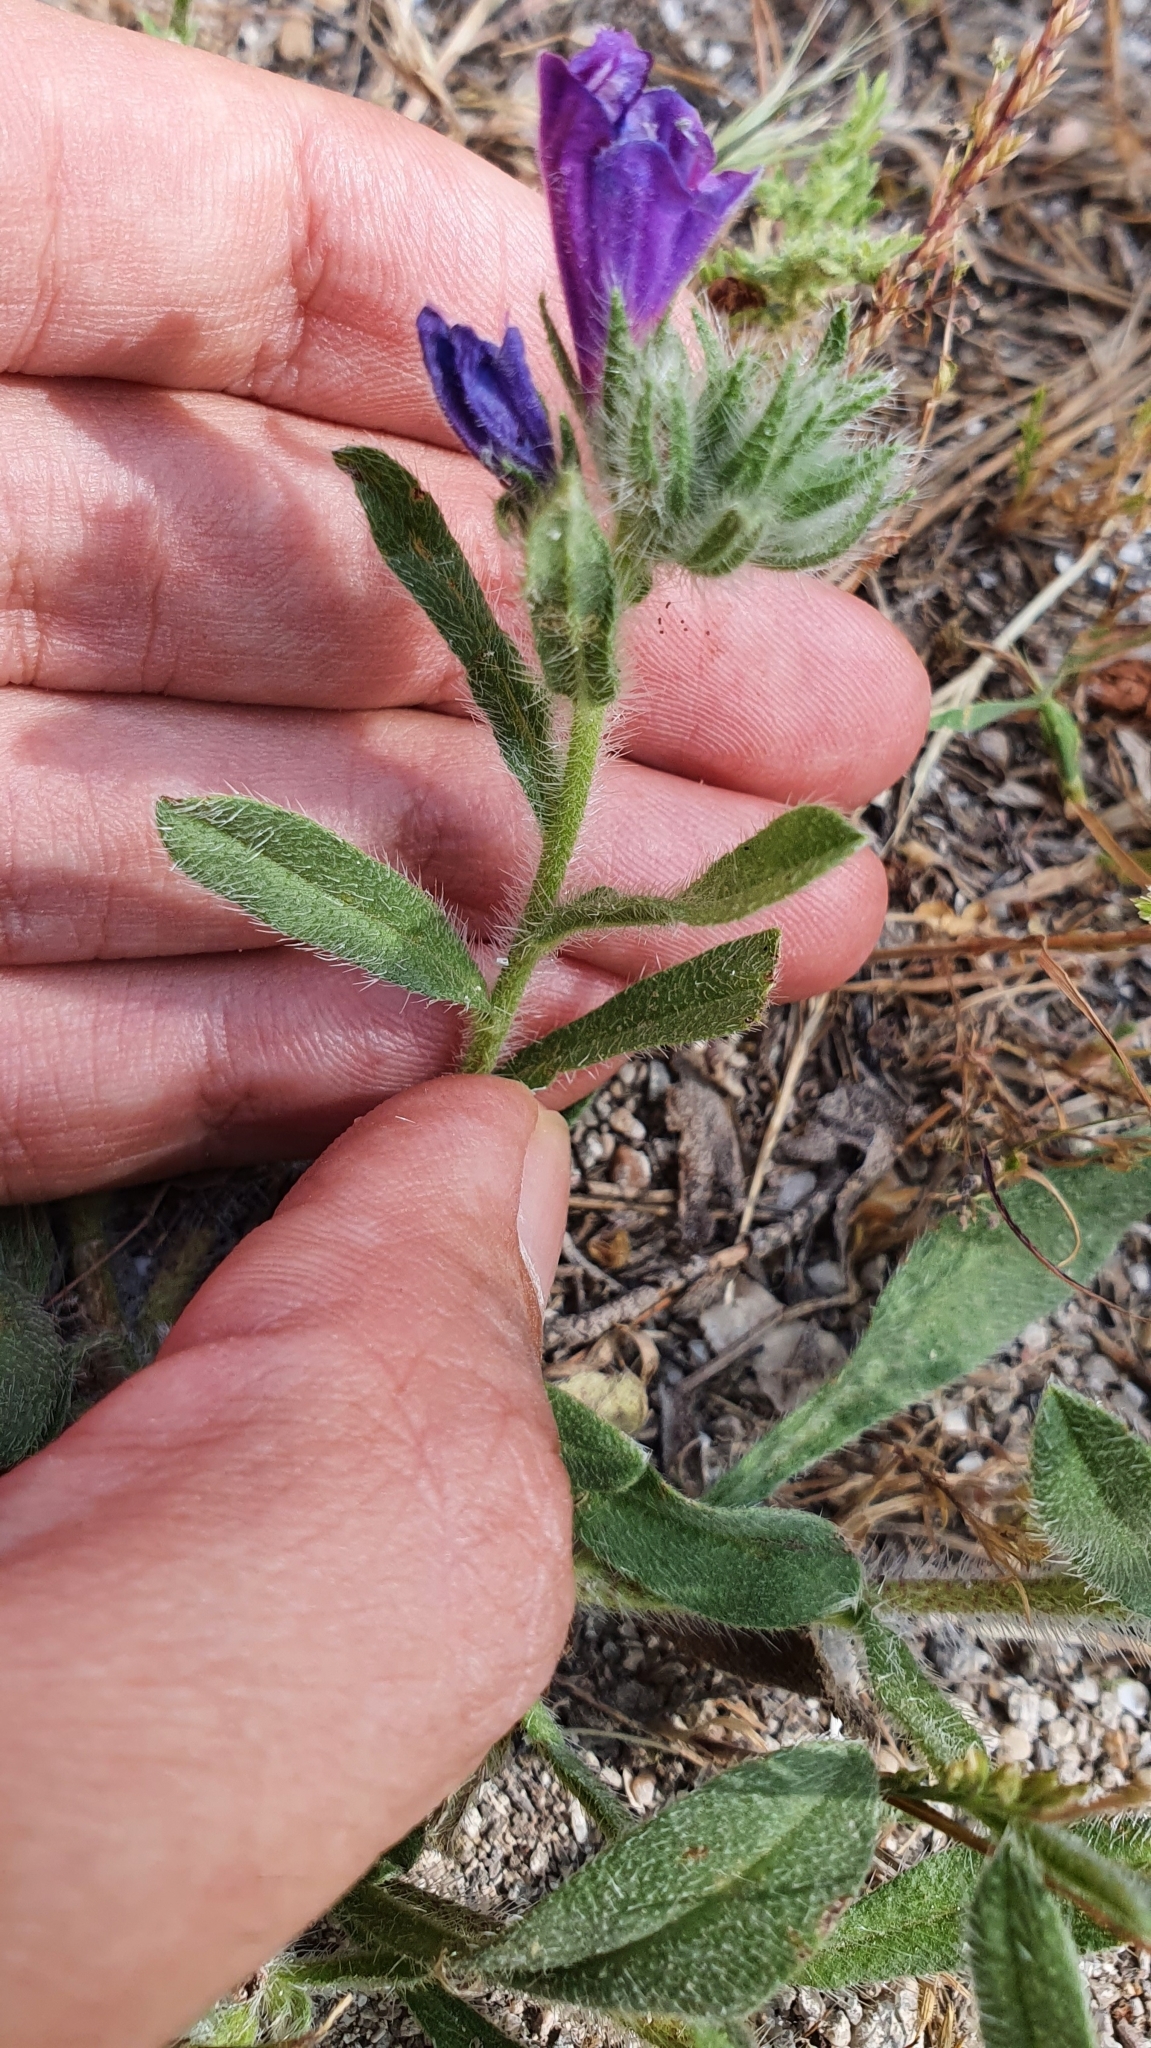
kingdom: Plantae
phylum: Tracheophyta
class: Magnoliopsida
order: Boraginales
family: Boraginaceae
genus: Echium
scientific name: Echium sabulicola
